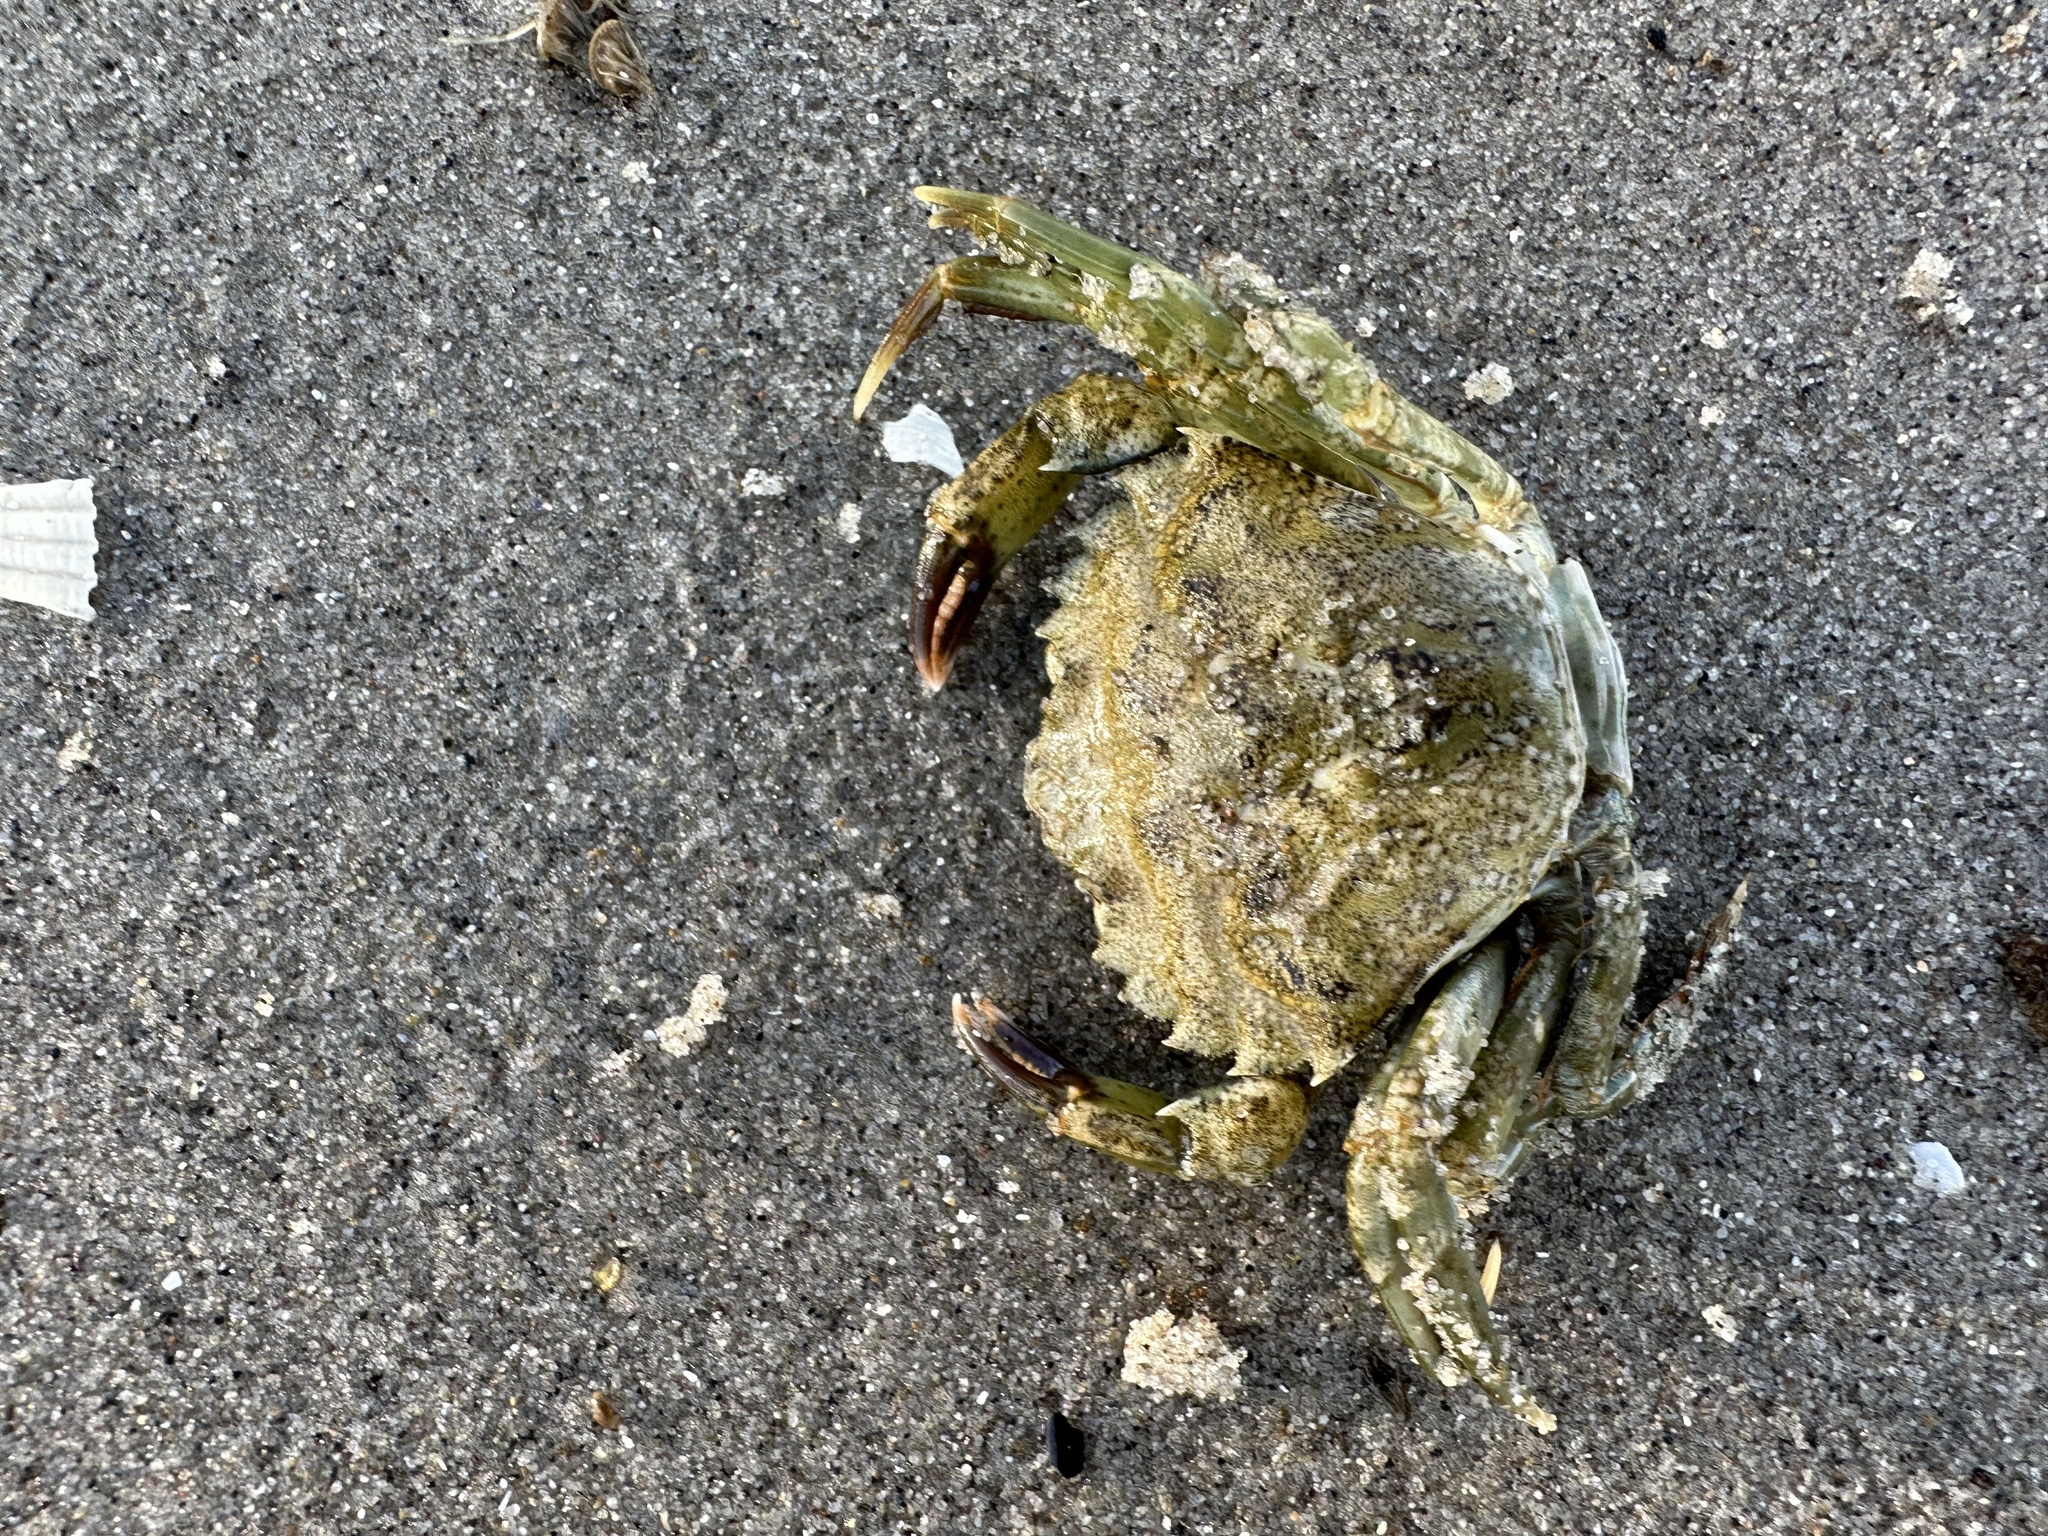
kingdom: Animalia
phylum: Arthropoda
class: Malacostraca
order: Decapoda
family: Carcinidae
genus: Carcinus
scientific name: Carcinus maenas
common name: European green crab
